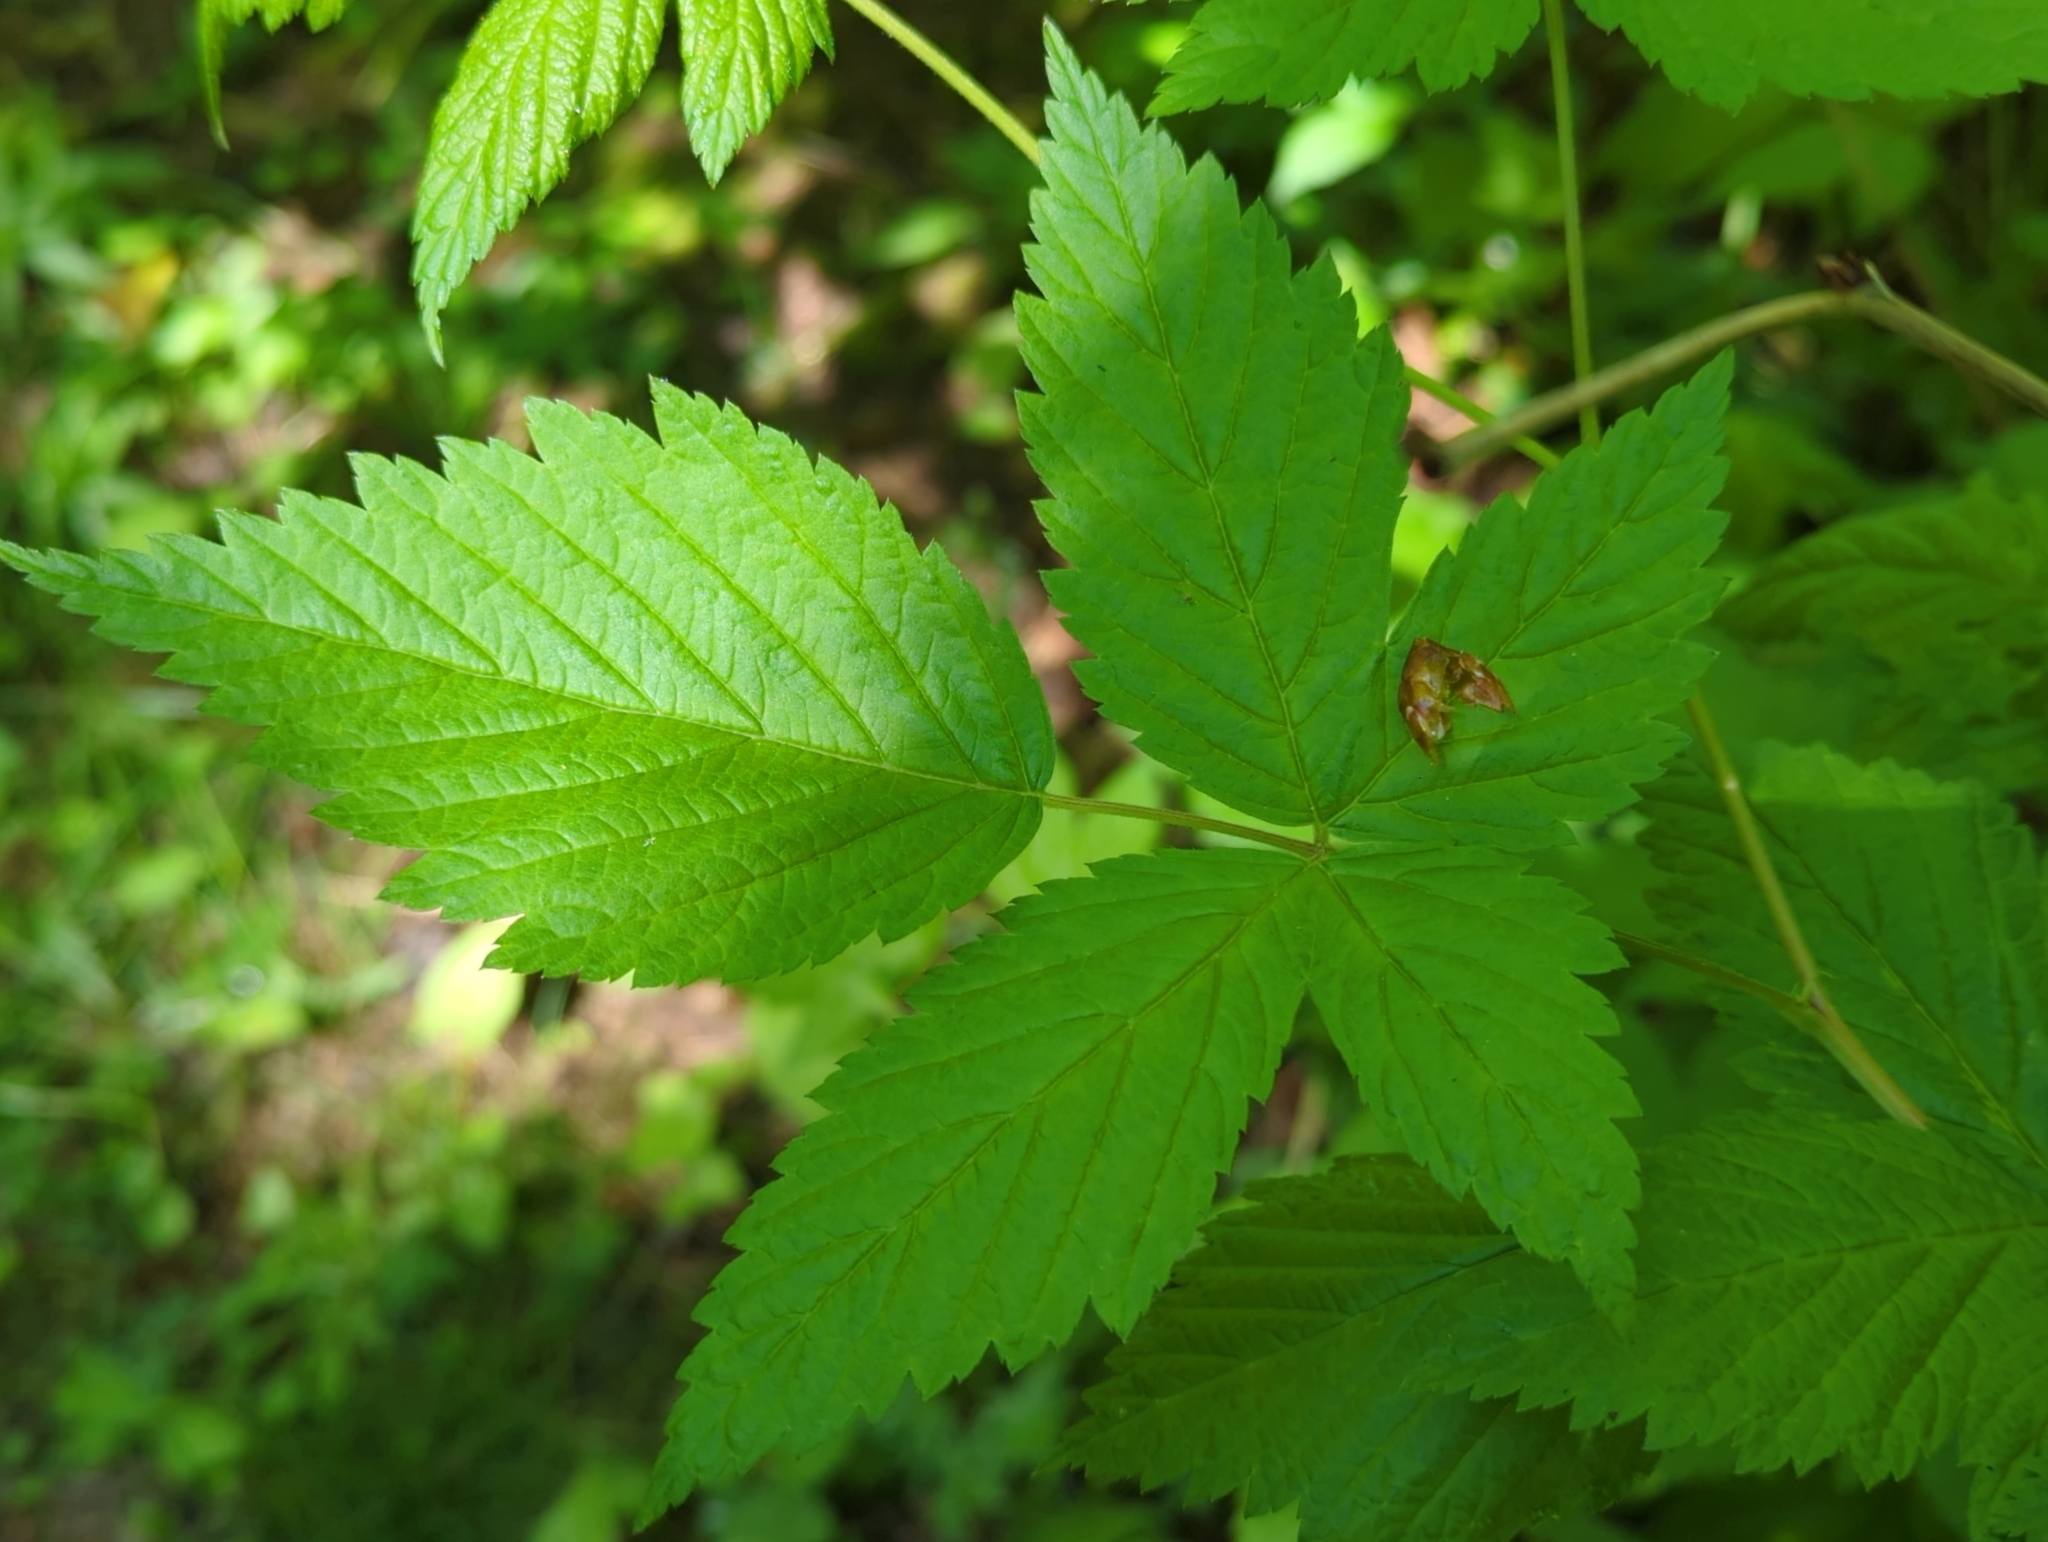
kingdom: Plantae
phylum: Tracheophyta
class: Magnoliopsida
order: Rosales
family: Rosaceae
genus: Rubus
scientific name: Rubus spectabilis
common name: Salmonberry
